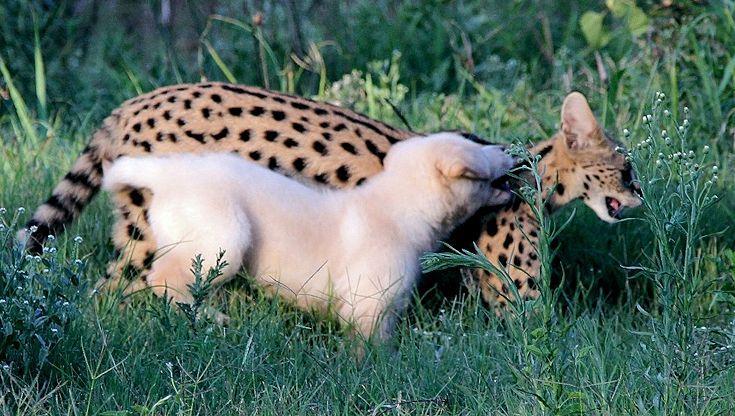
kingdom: Animalia
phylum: Chordata
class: Mammalia
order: Carnivora
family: Felidae
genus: Leptailurus
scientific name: Leptailurus serval
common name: Serval
